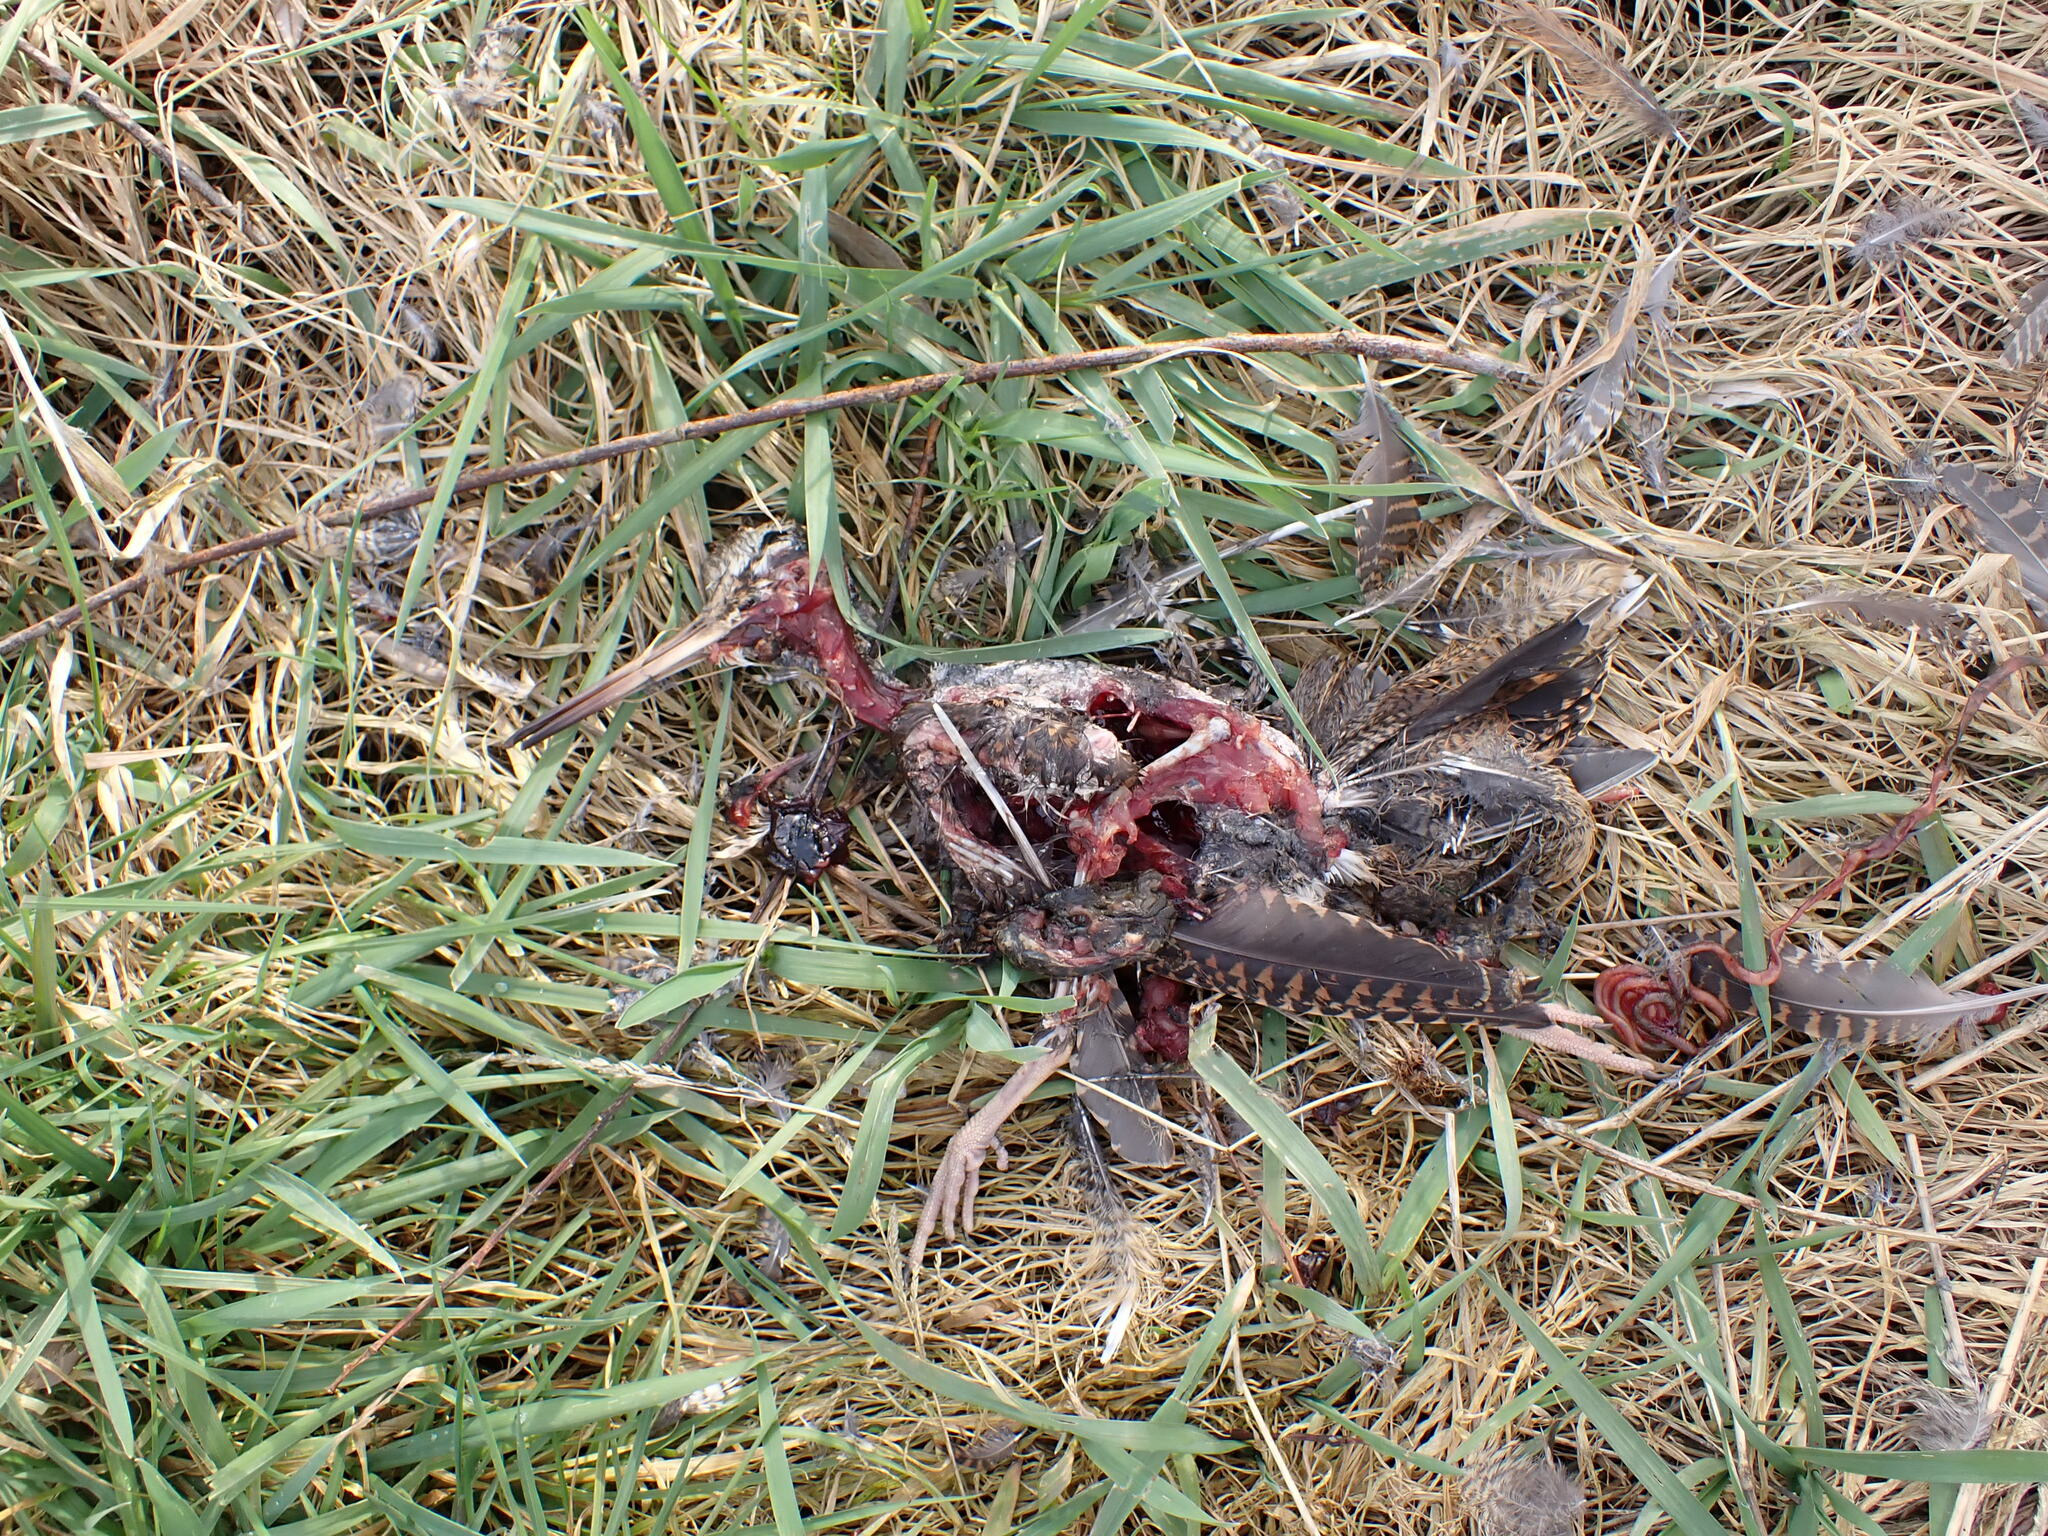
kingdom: Animalia
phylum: Chordata
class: Aves
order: Charadriiformes
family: Scolopacidae
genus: Scolopax
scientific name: Scolopax rusticola
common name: Eurasian woodcock
